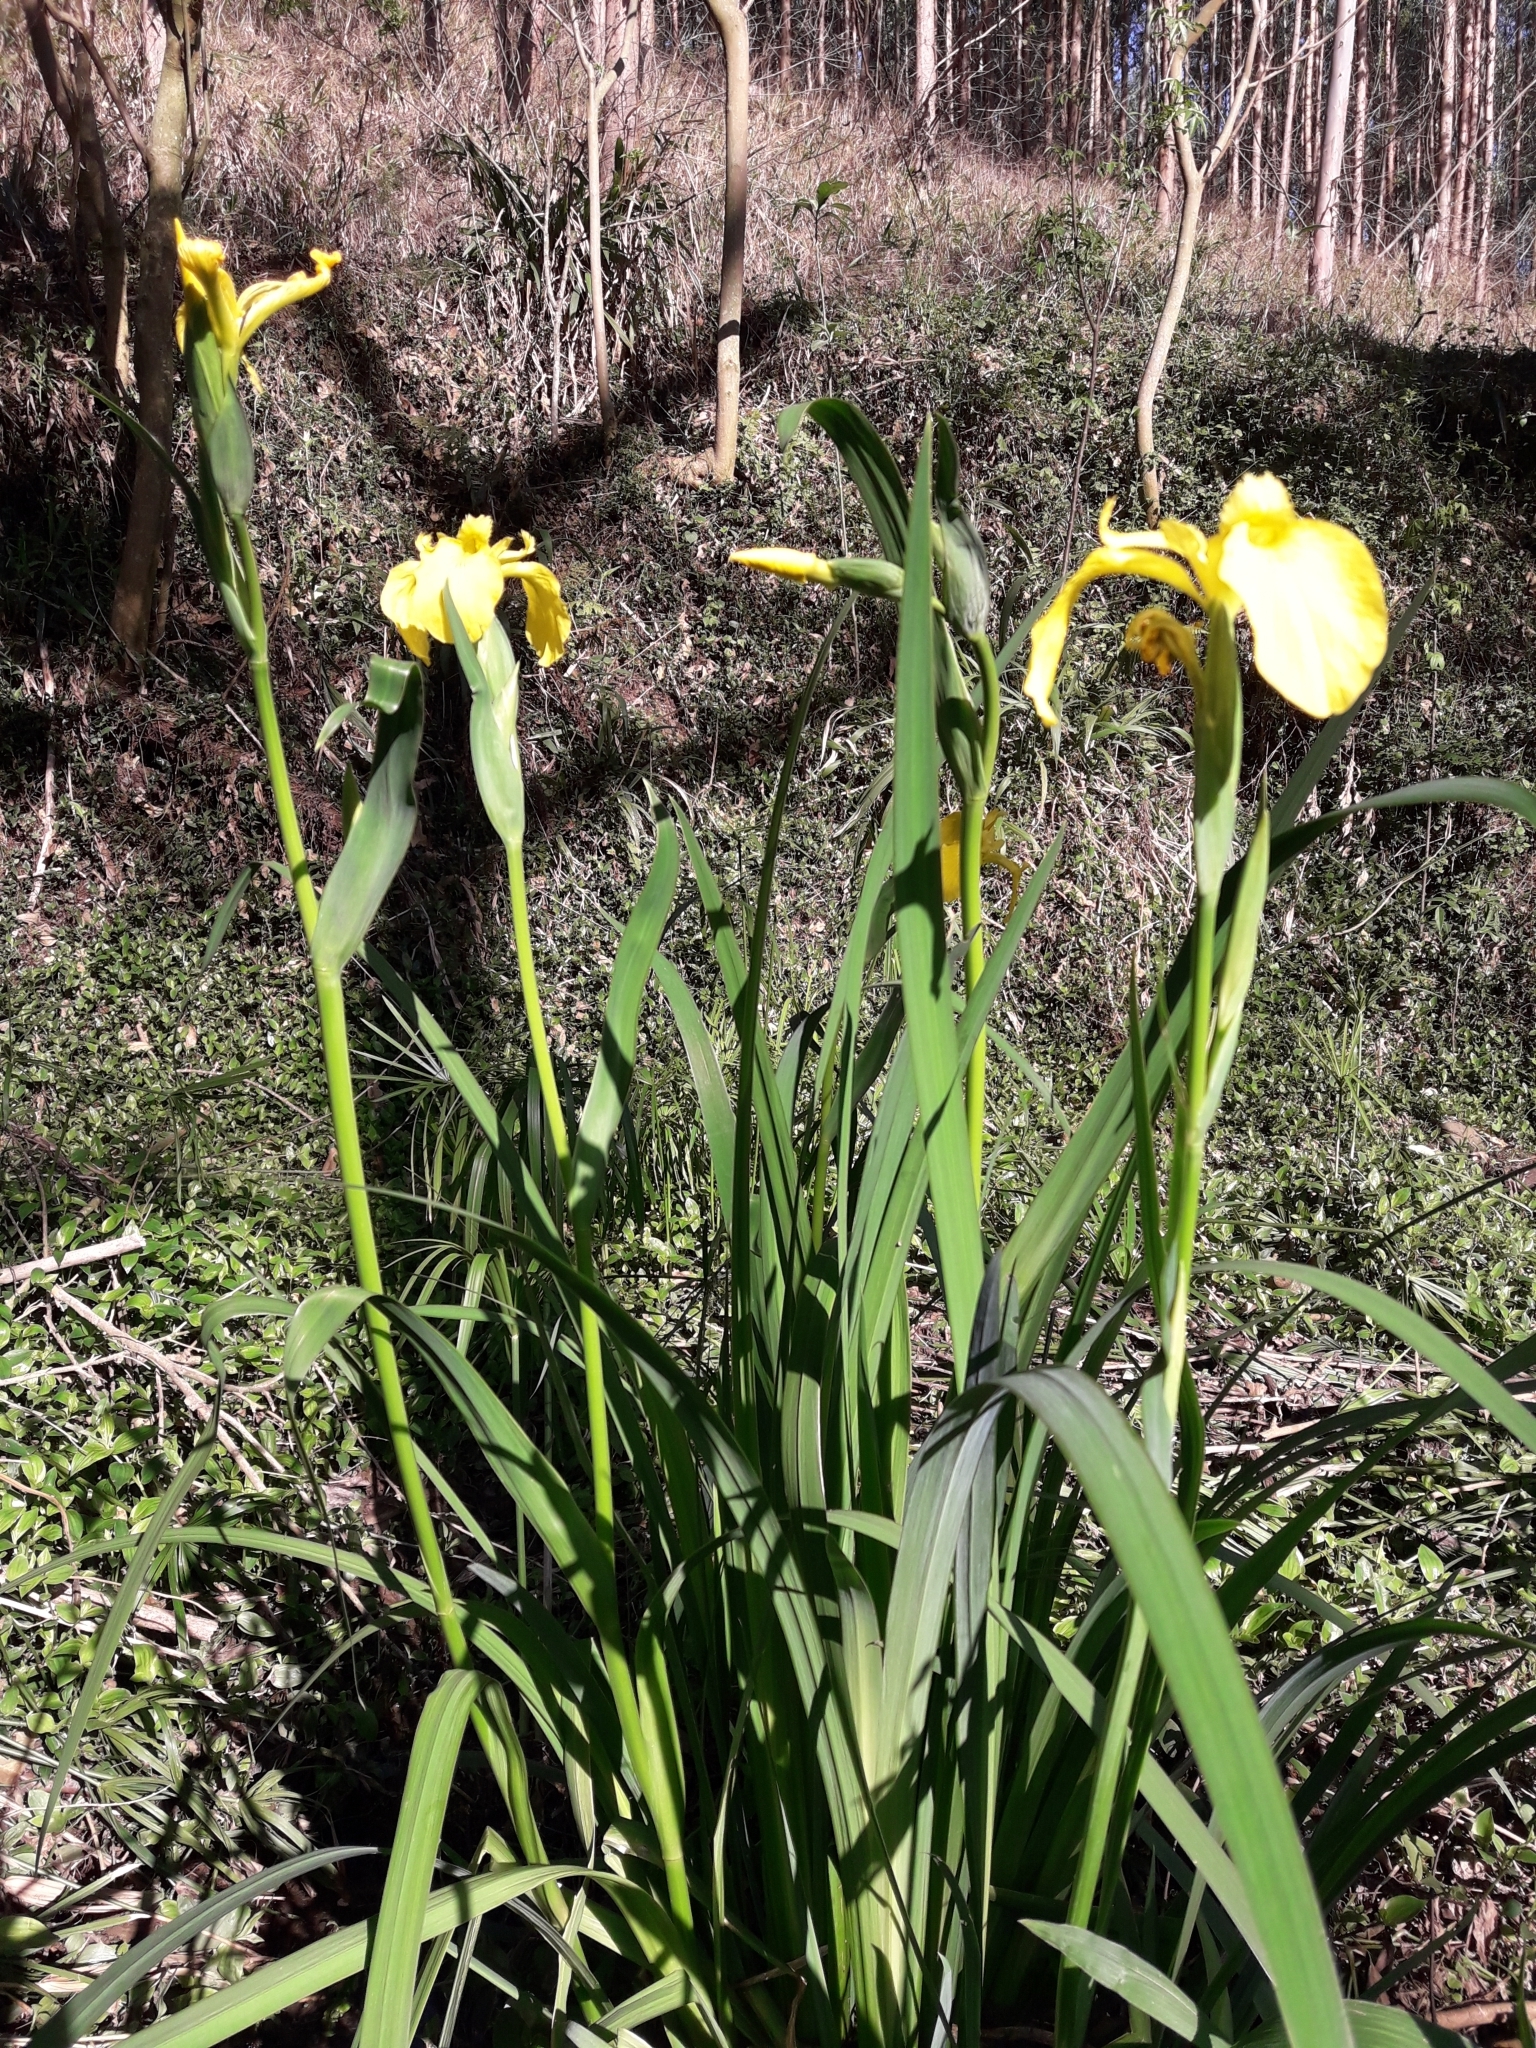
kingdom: Plantae
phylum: Tracheophyta
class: Liliopsida
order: Asparagales
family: Iridaceae
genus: Iris
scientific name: Iris pseudacorus
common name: Yellow flag
